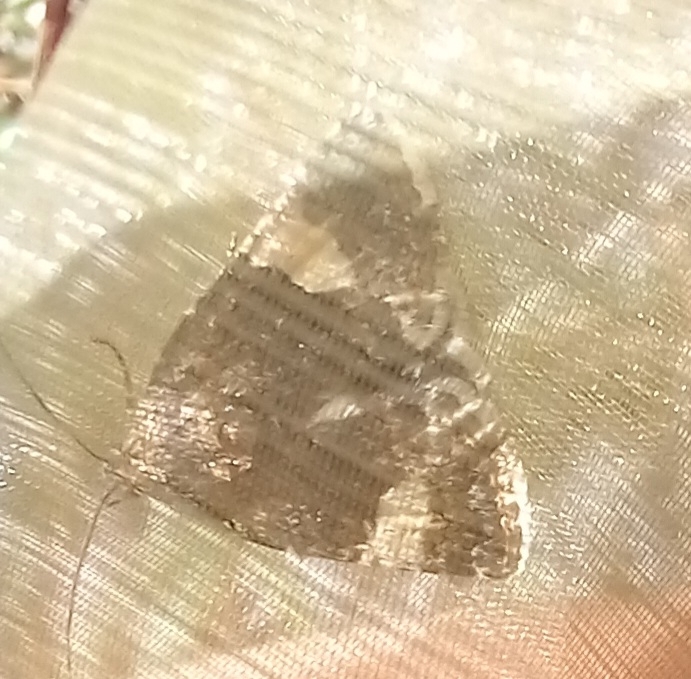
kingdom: Animalia
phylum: Arthropoda
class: Insecta
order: Lepidoptera
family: Erebidae
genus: Tyta
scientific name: Tyta luctuosa
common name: Four-spotted
